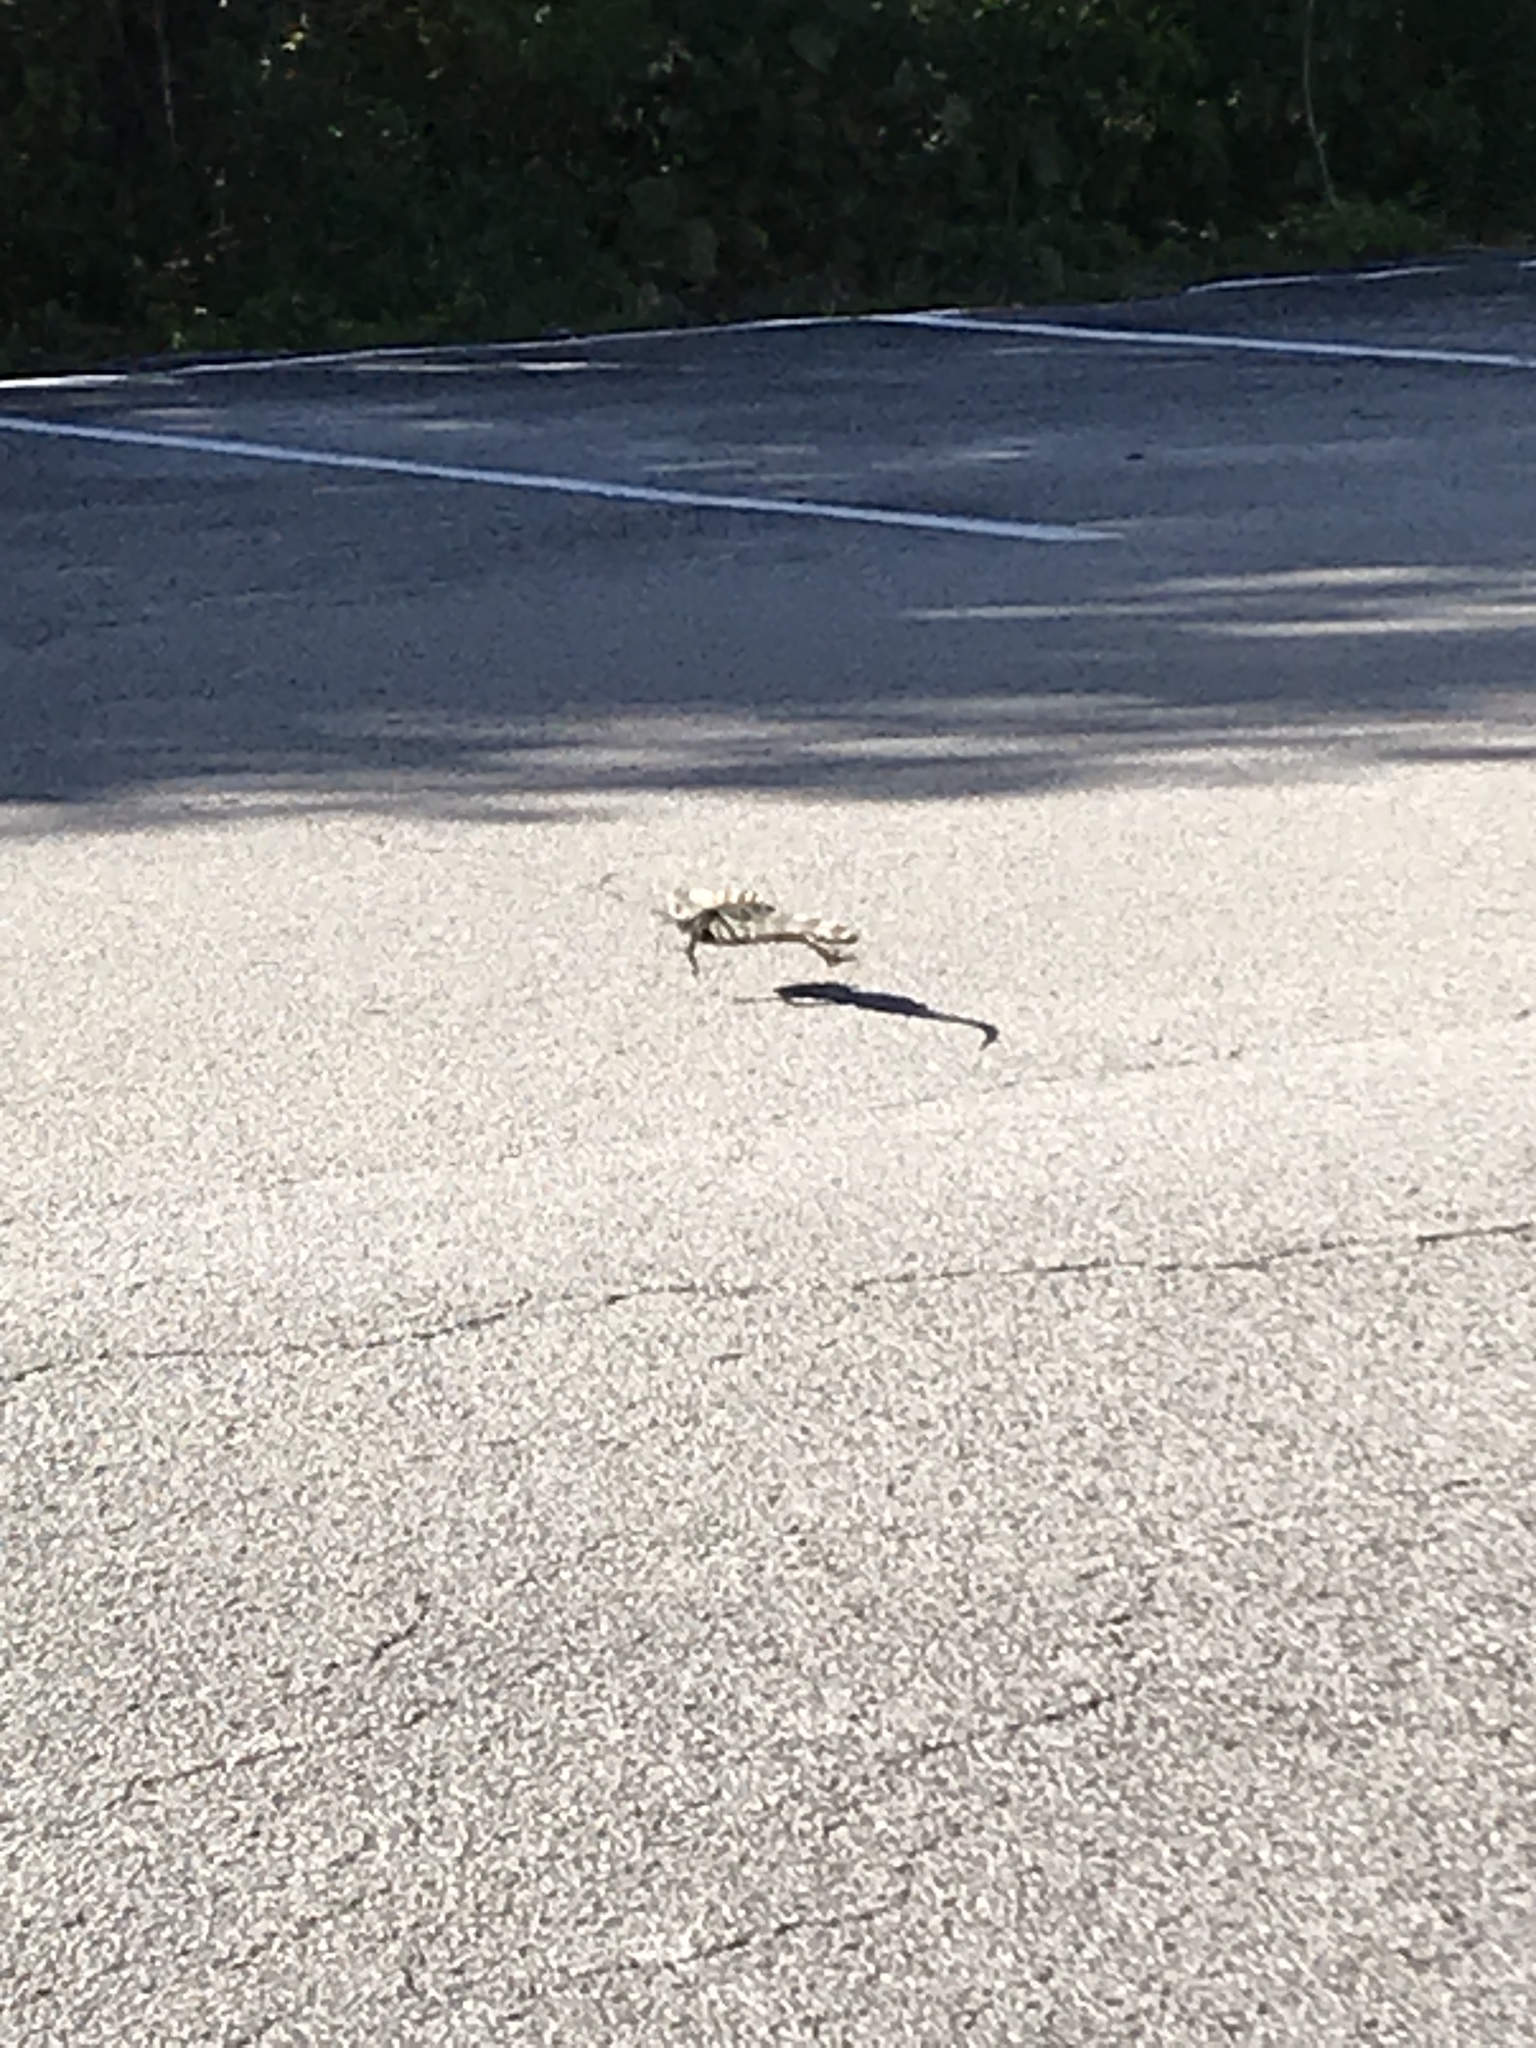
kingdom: Animalia
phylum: Chordata
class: Squamata
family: Iguanidae
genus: Ctenosaura
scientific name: Ctenosaura similis
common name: Black spiny-tailed iguana
